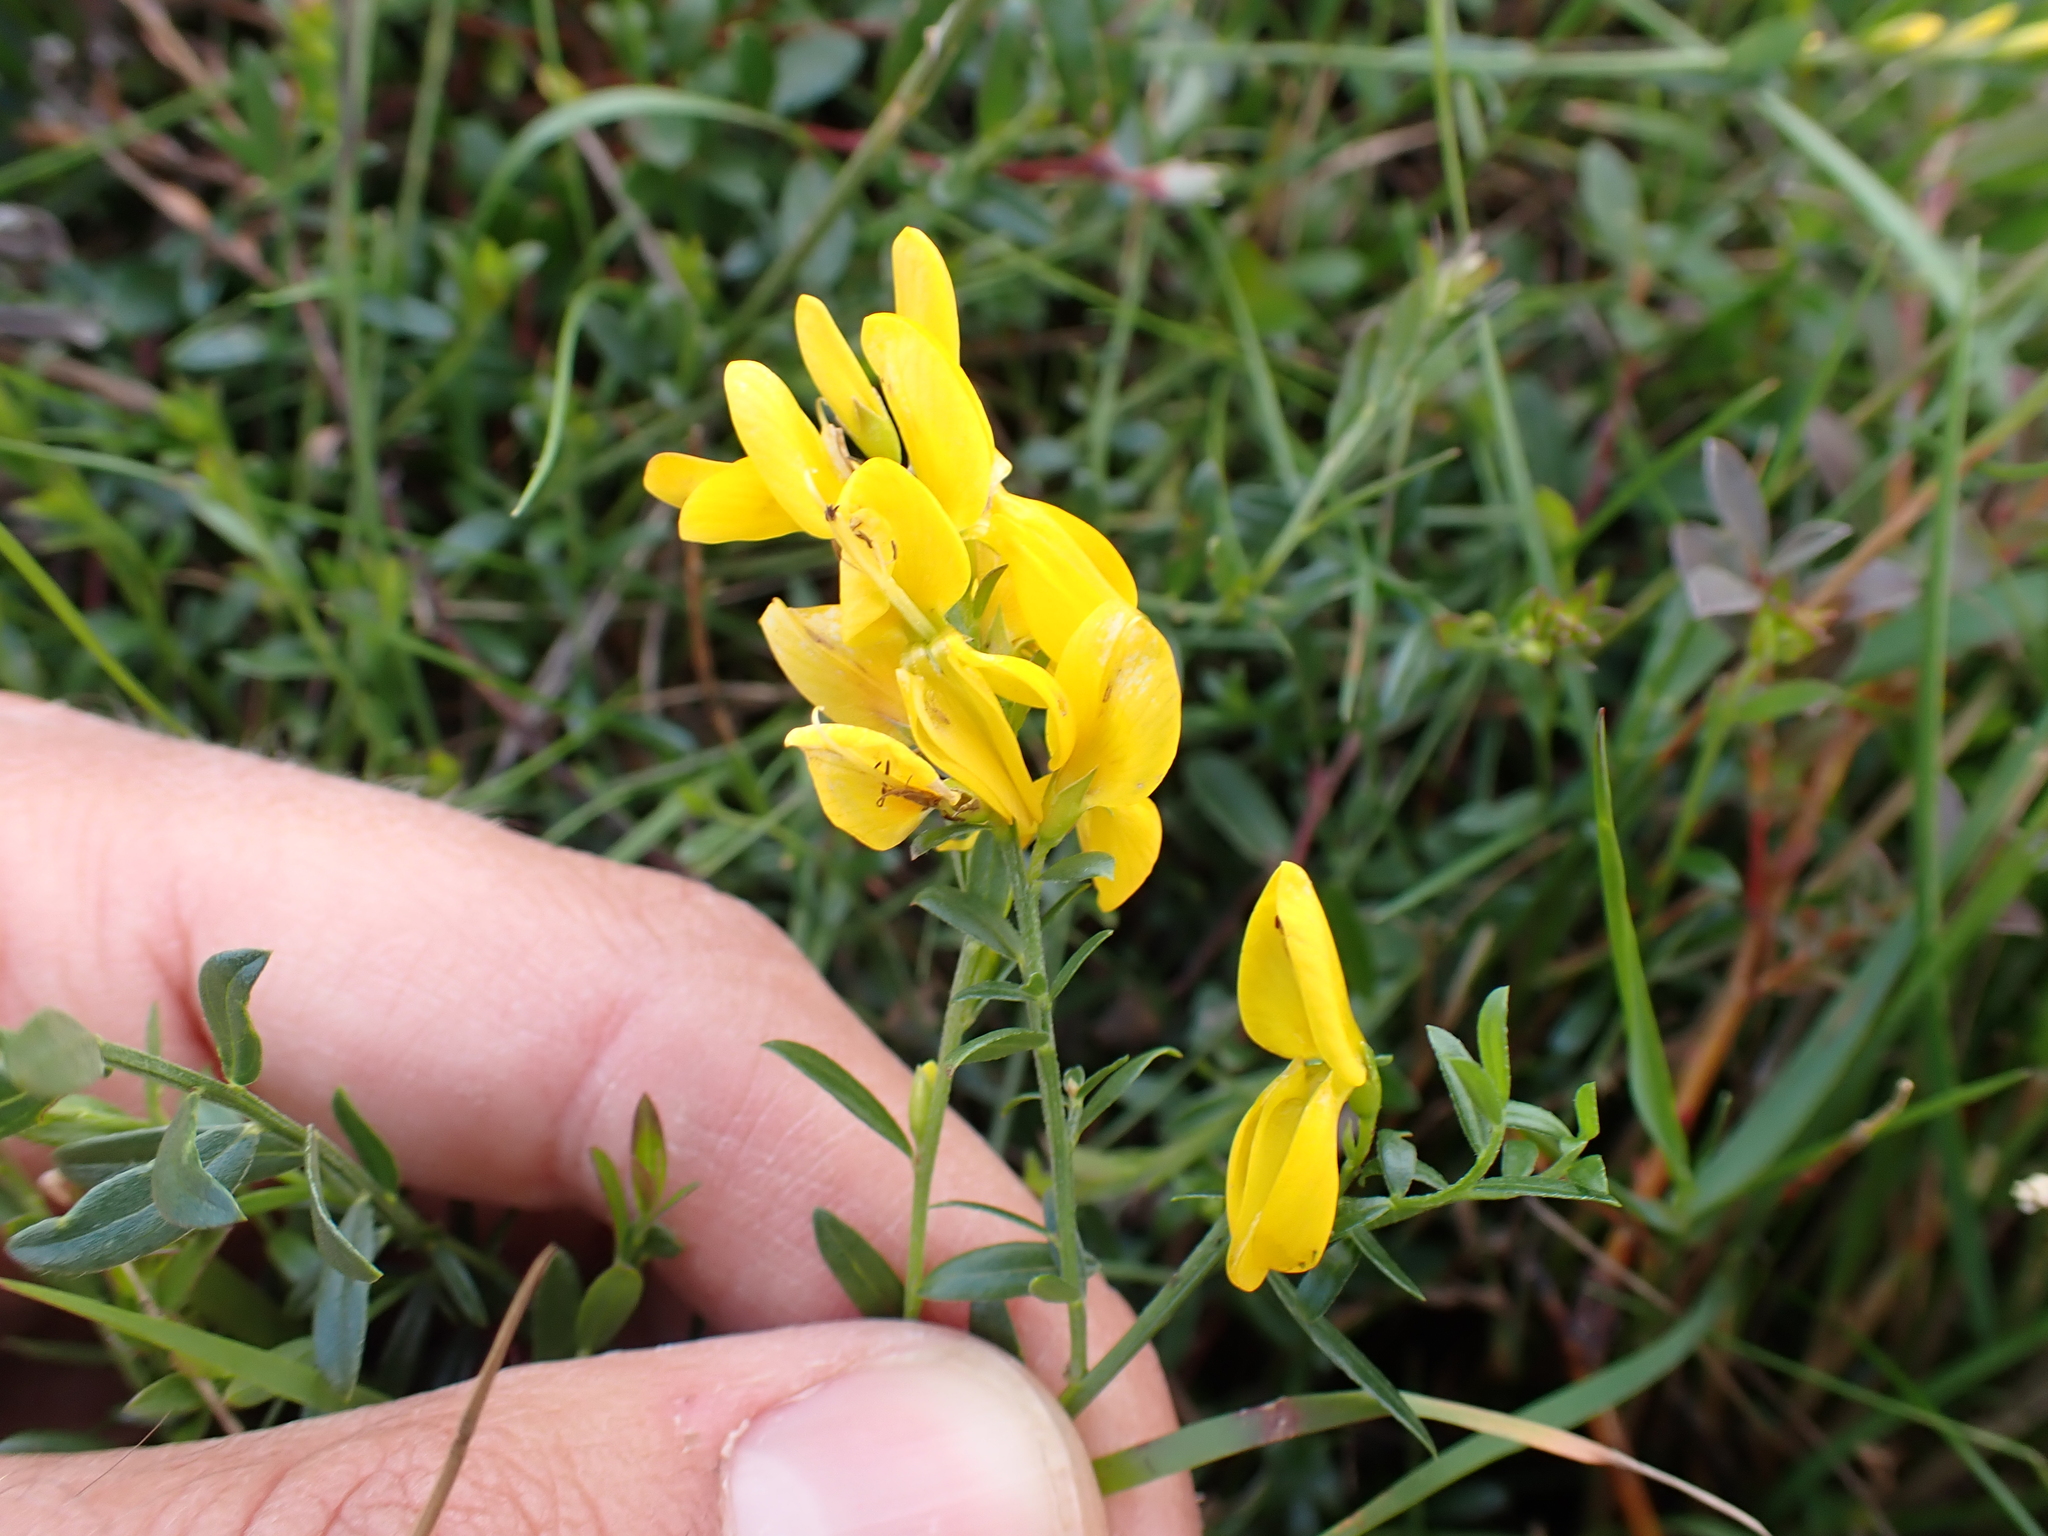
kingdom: Plantae
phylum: Tracheophyta
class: Magnoliopsida
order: Fabales
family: Fabaceae
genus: Genista
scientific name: Genista tinctoria
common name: Dyer's greenweed
